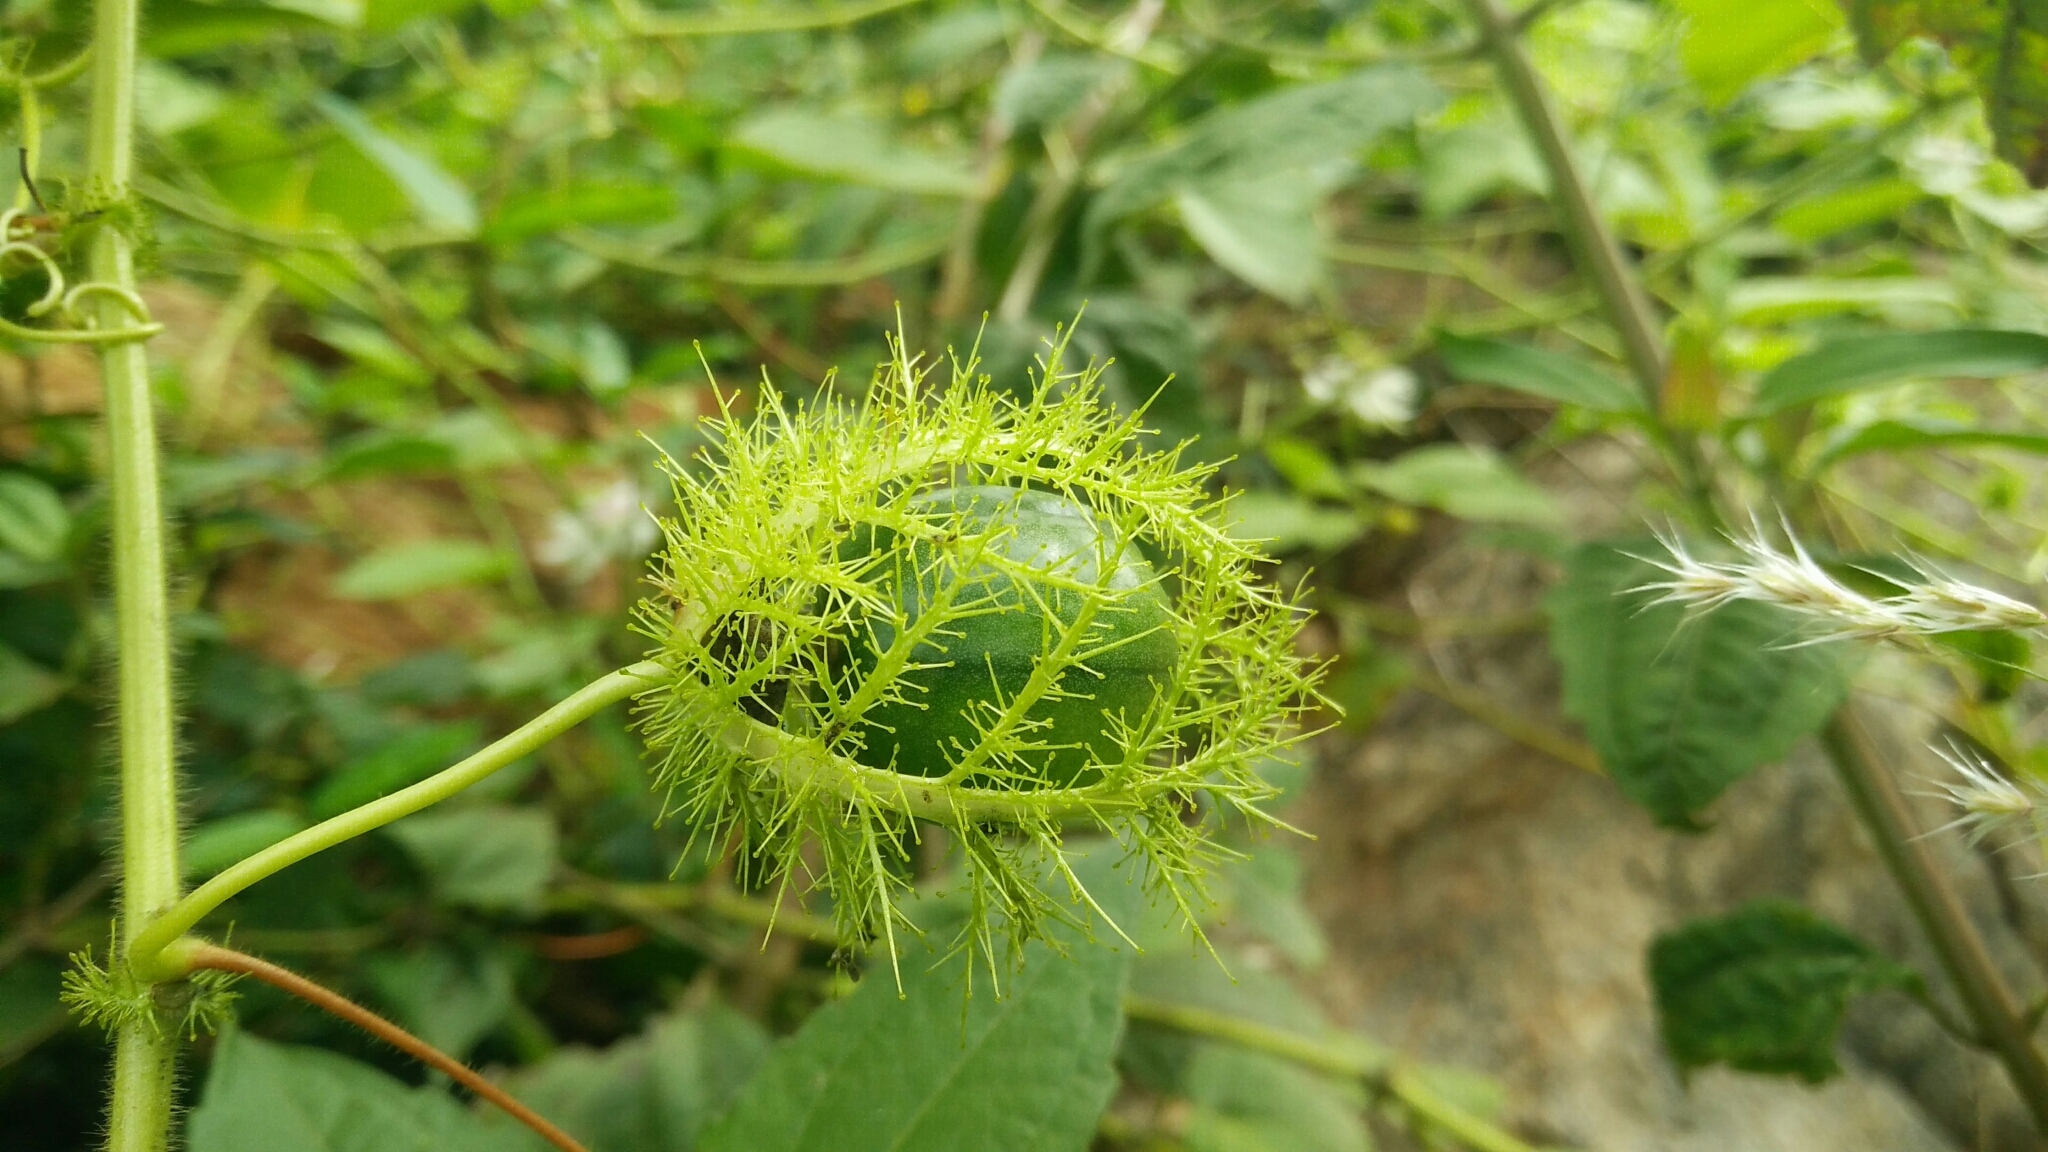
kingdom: Plantae
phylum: Tracheophyta
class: Magnoliopsida
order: Malpighiales
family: Passifloraceae
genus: Passiflora
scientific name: Passiflora foetida
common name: Fetid passionflower
